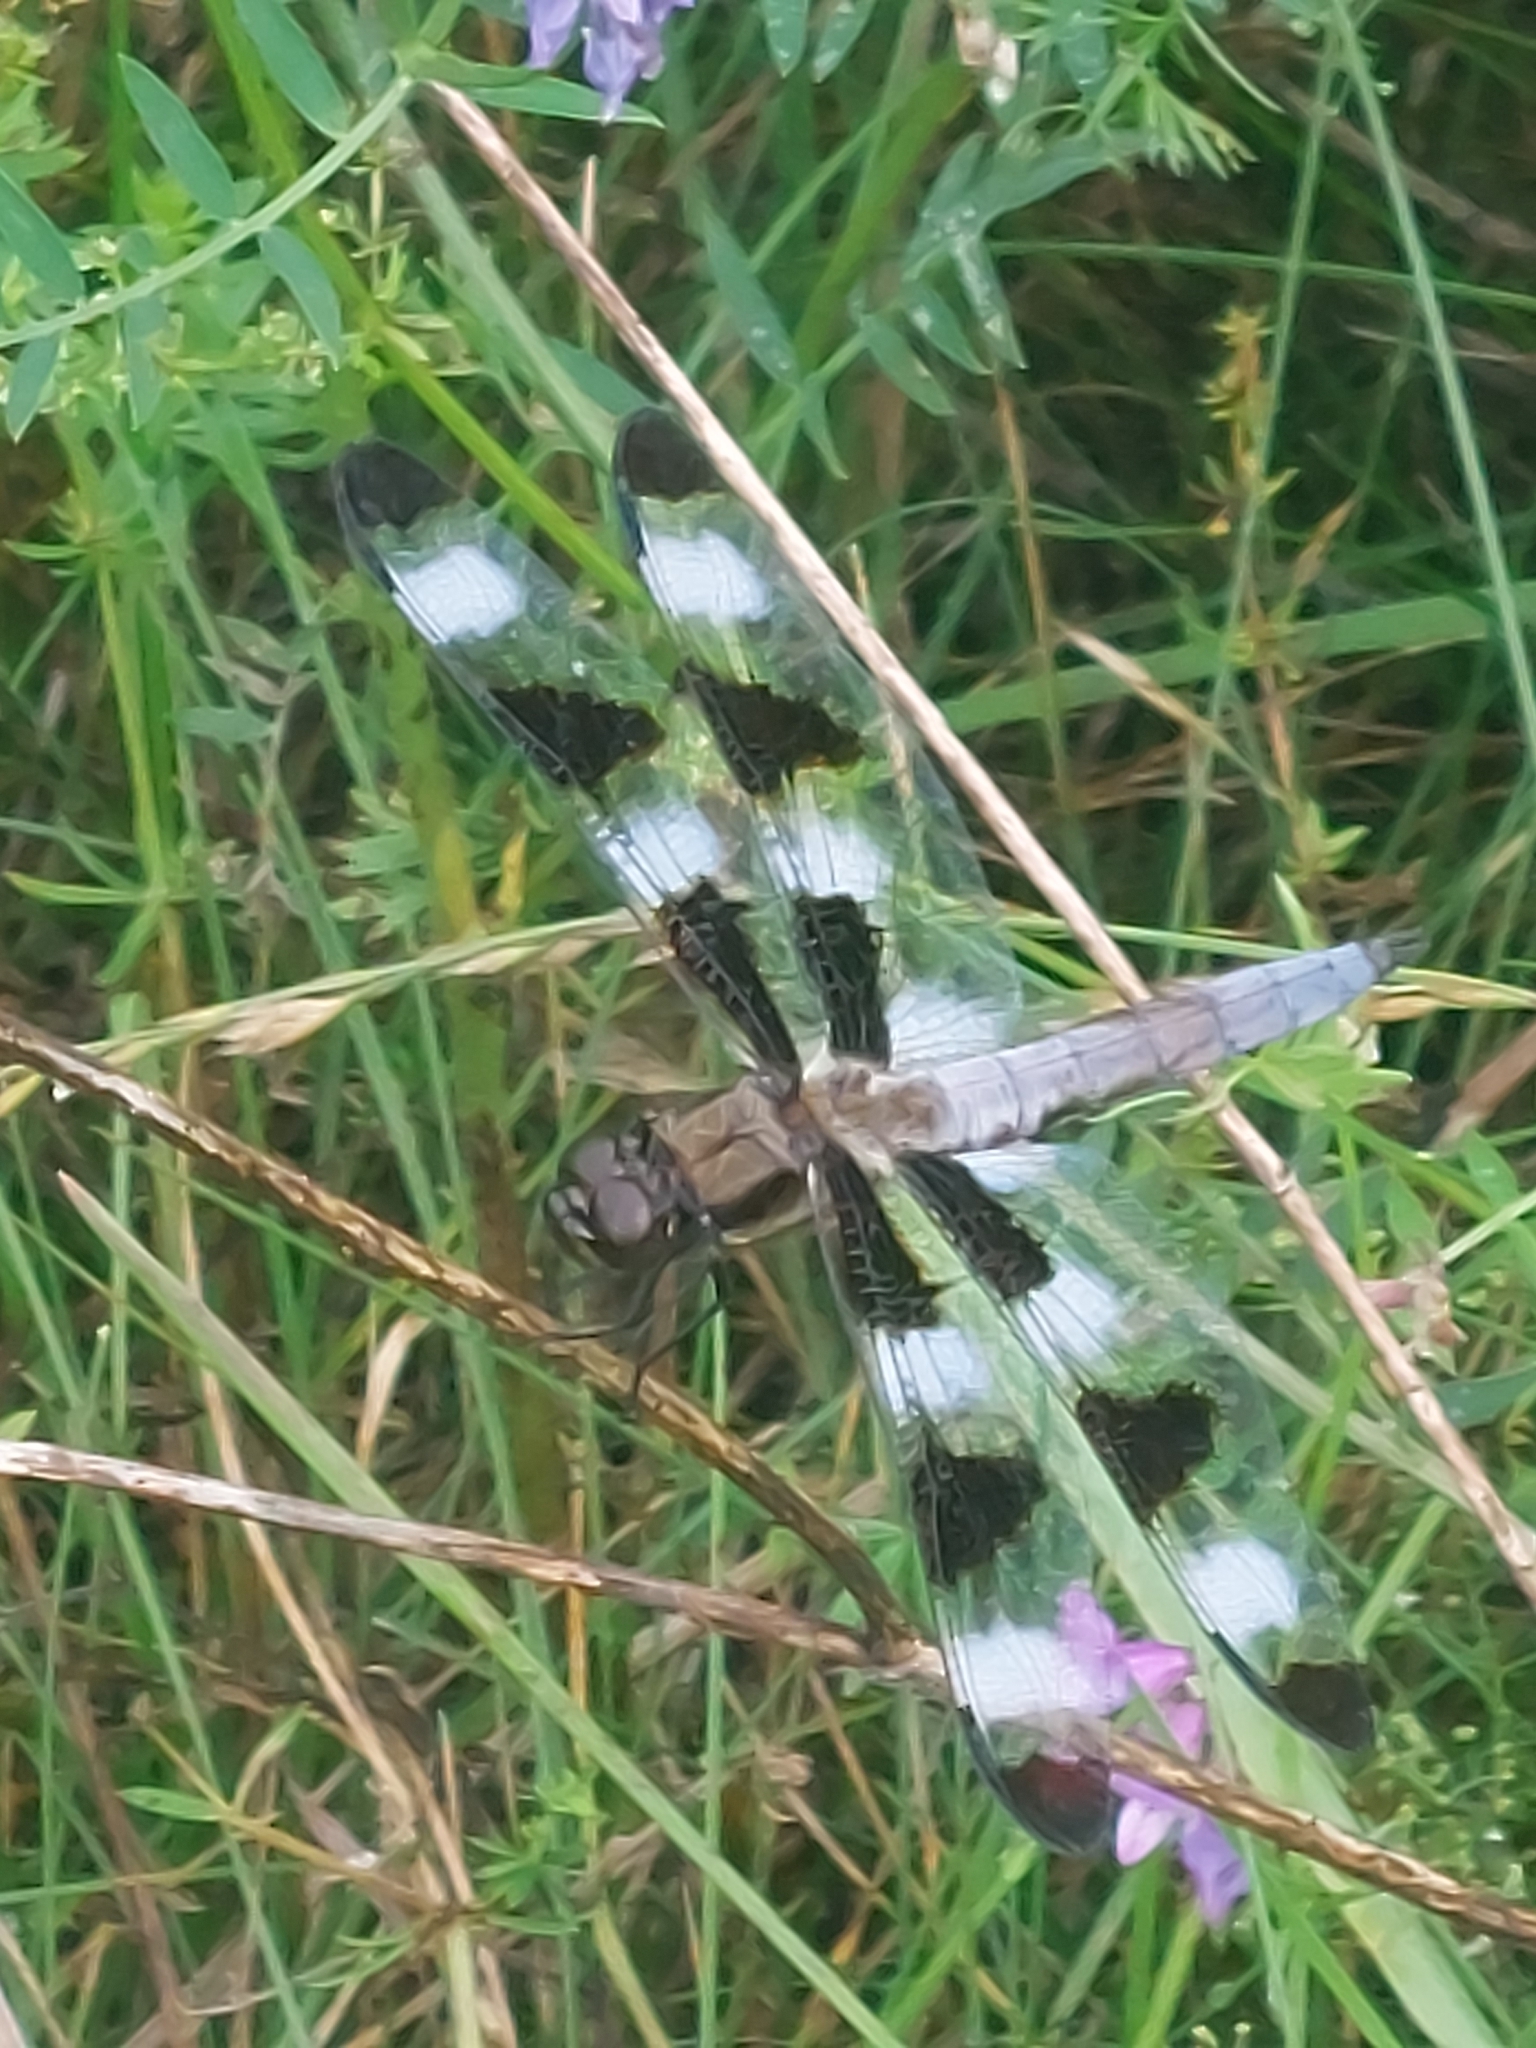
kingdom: Animalia
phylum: Arthropoda
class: Insecta
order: Odonata
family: Libellulidae
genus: Libellula
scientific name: Libellula pulchella
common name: Twelve-spotted skimmer
